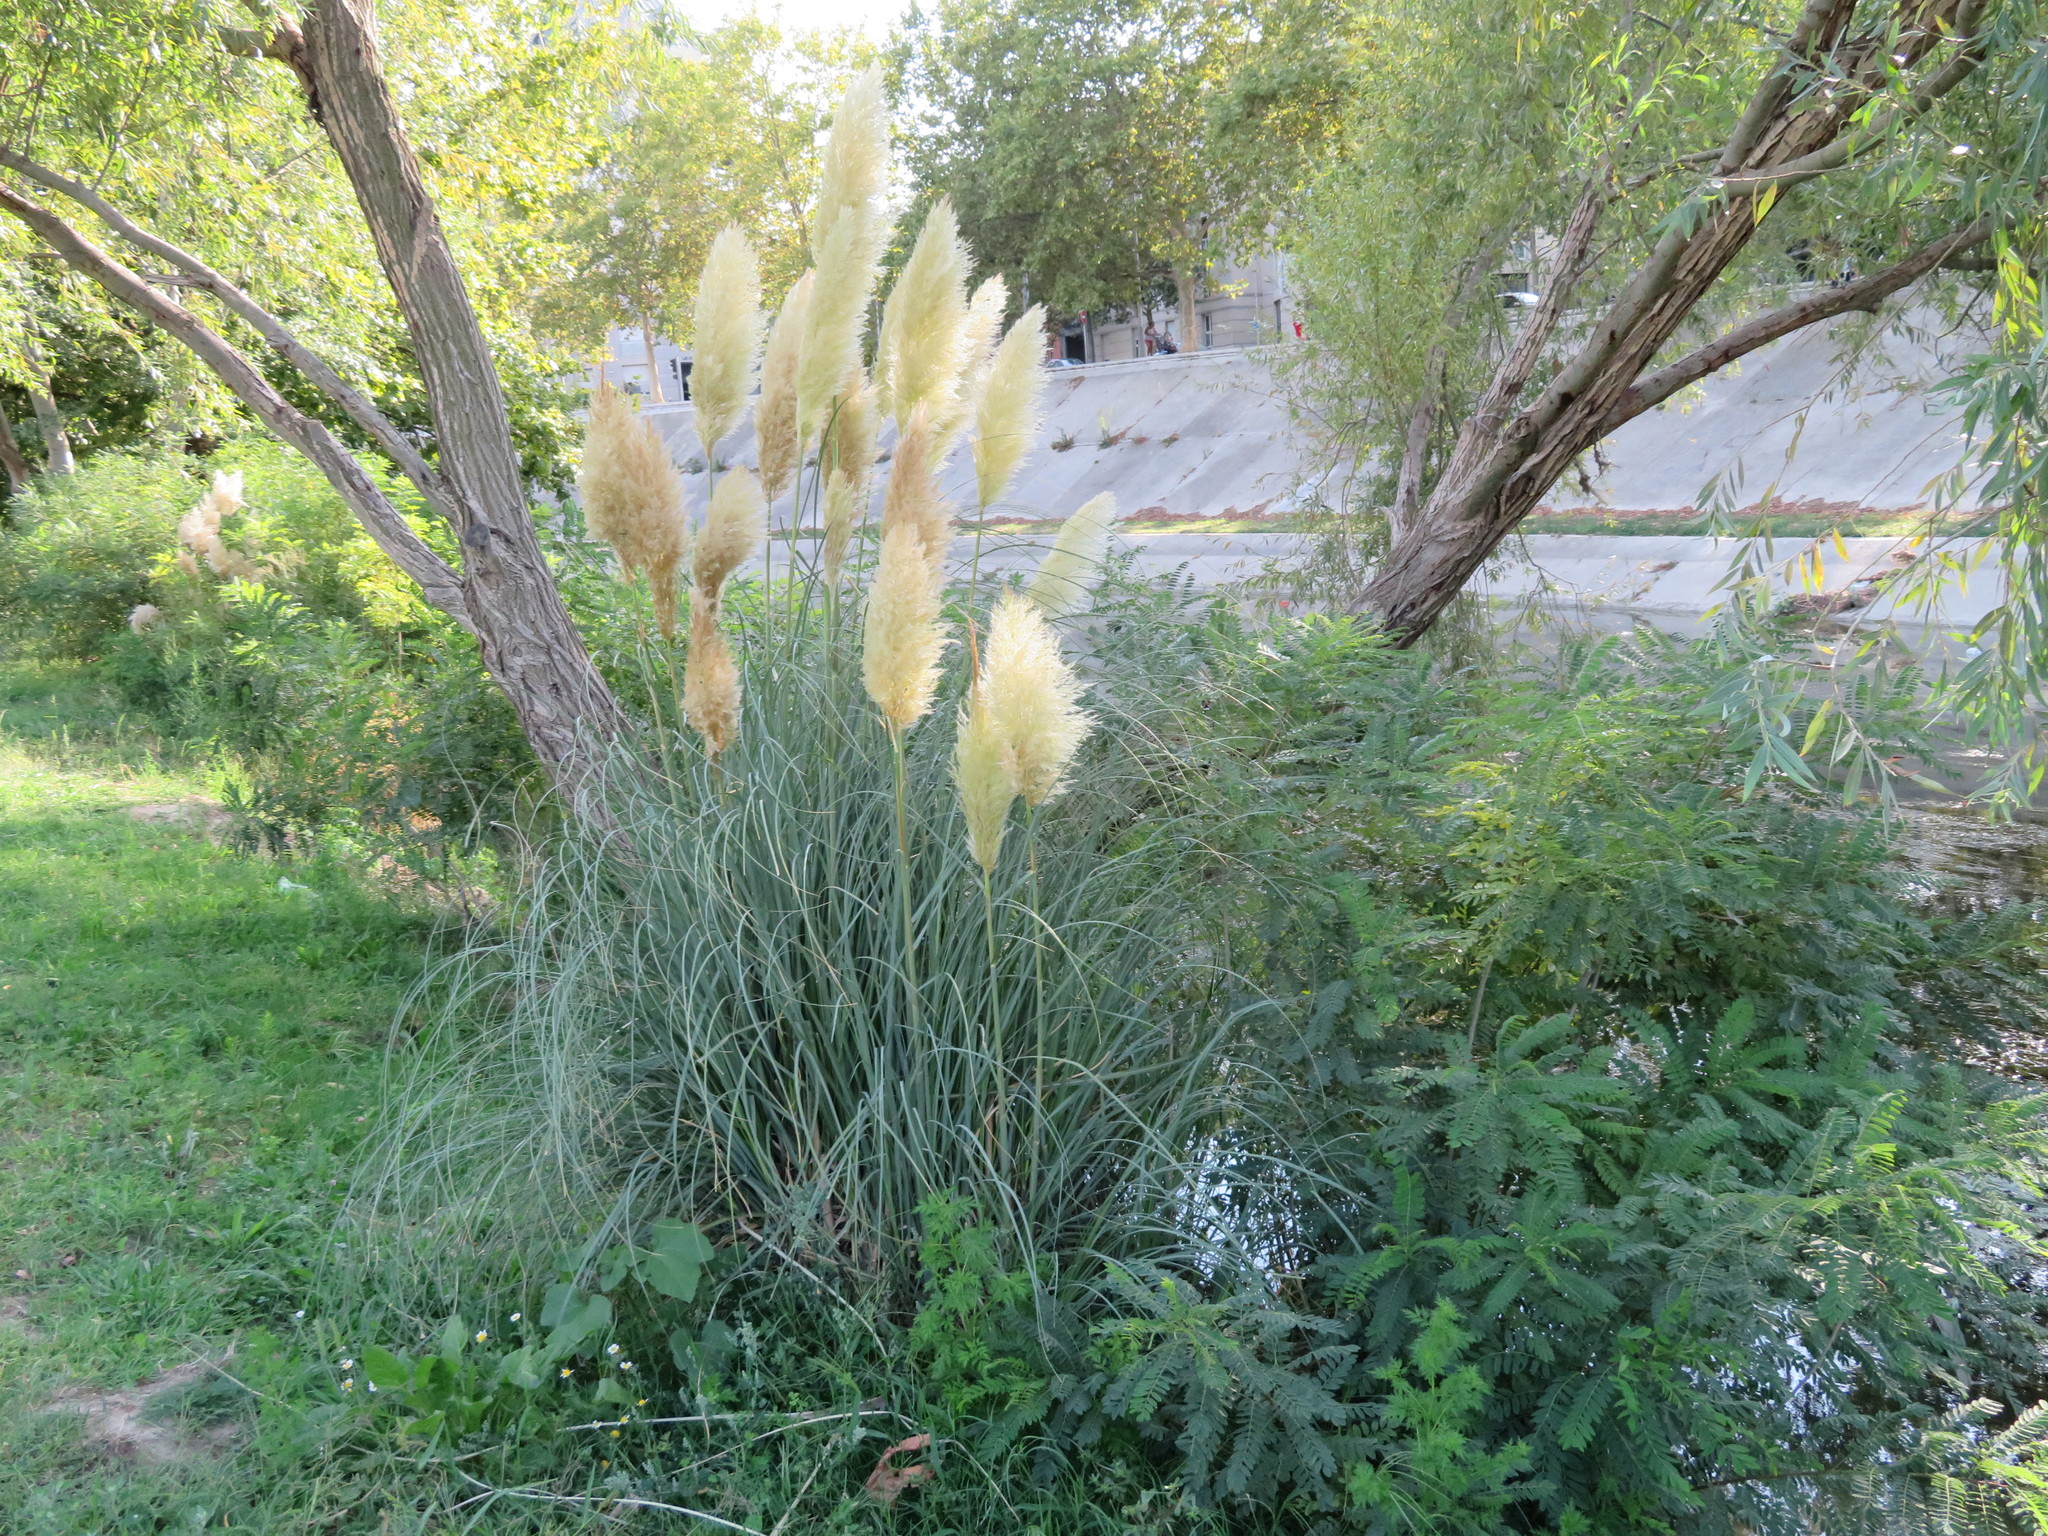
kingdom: Plantae
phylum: Tracheophyta
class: Liliopsida
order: Poales
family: Poaceae
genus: Cortaderia
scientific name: Cortaderia selloana
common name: Uruguayan pampas grass
